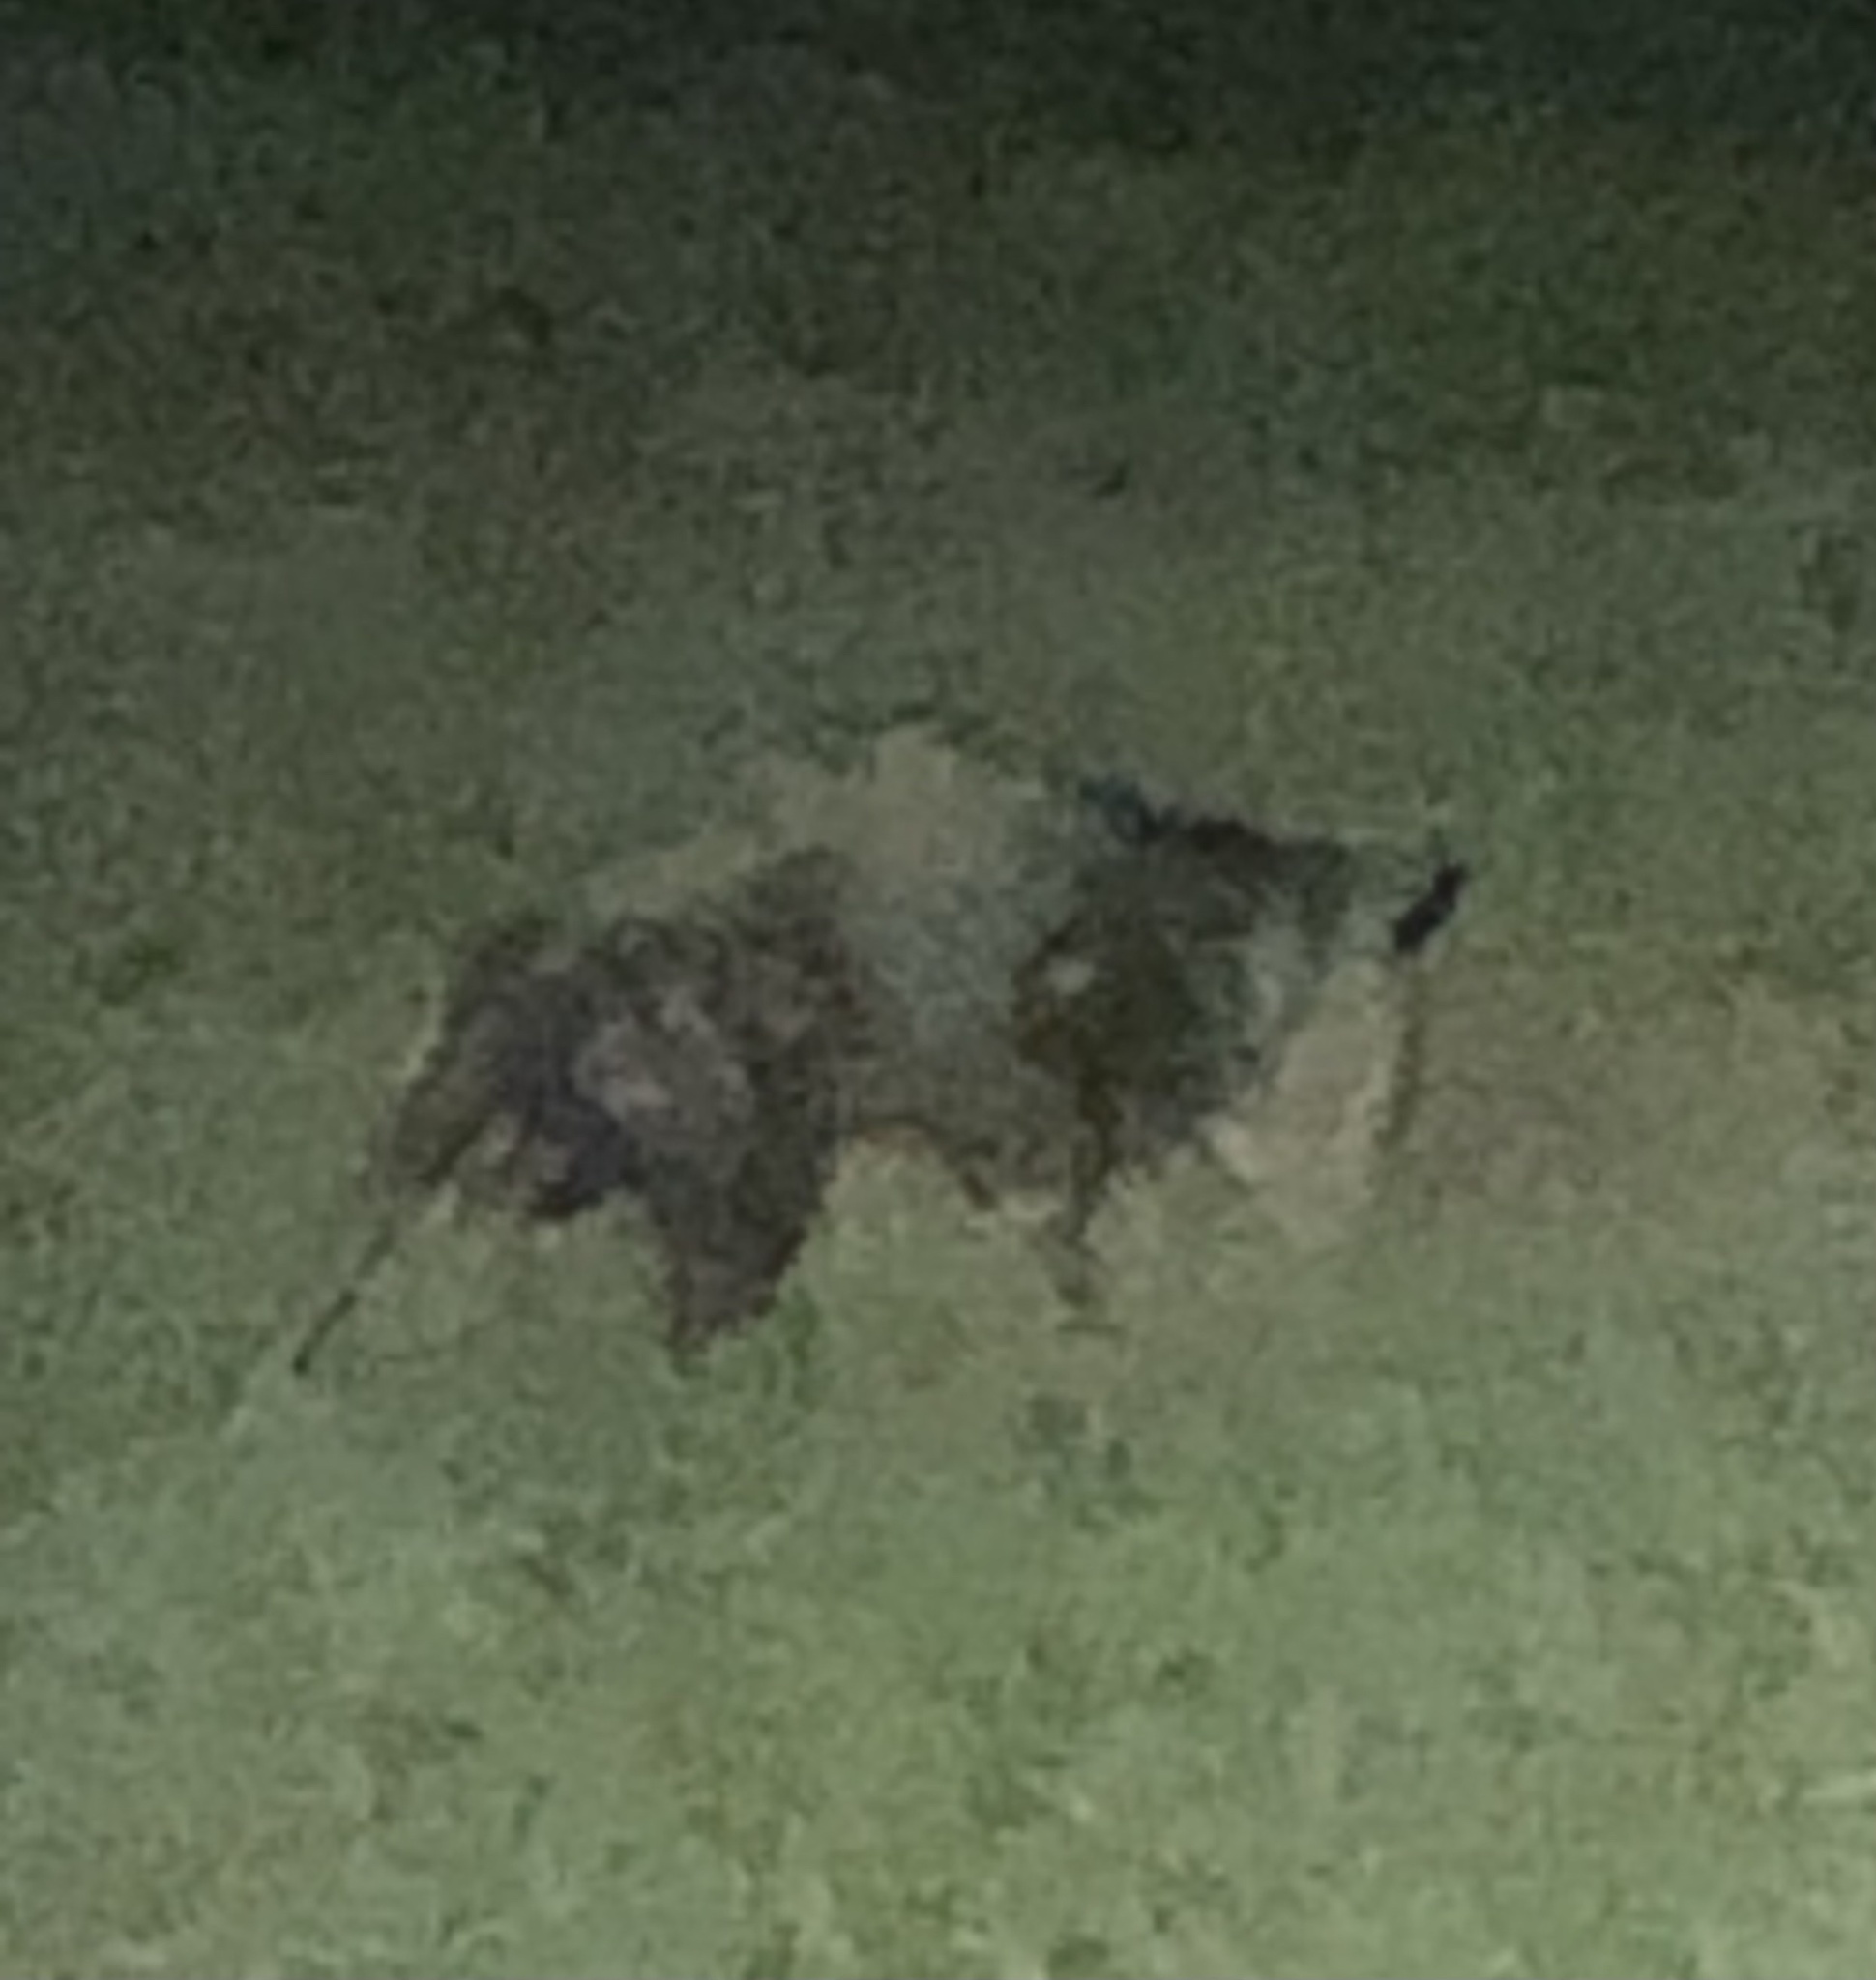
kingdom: Animalia
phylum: Chordata
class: Mammalia
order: Didelphimorphia
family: Didelphidae
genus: Didelphis
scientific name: Didelphis virginiana
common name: Virginia opossum
